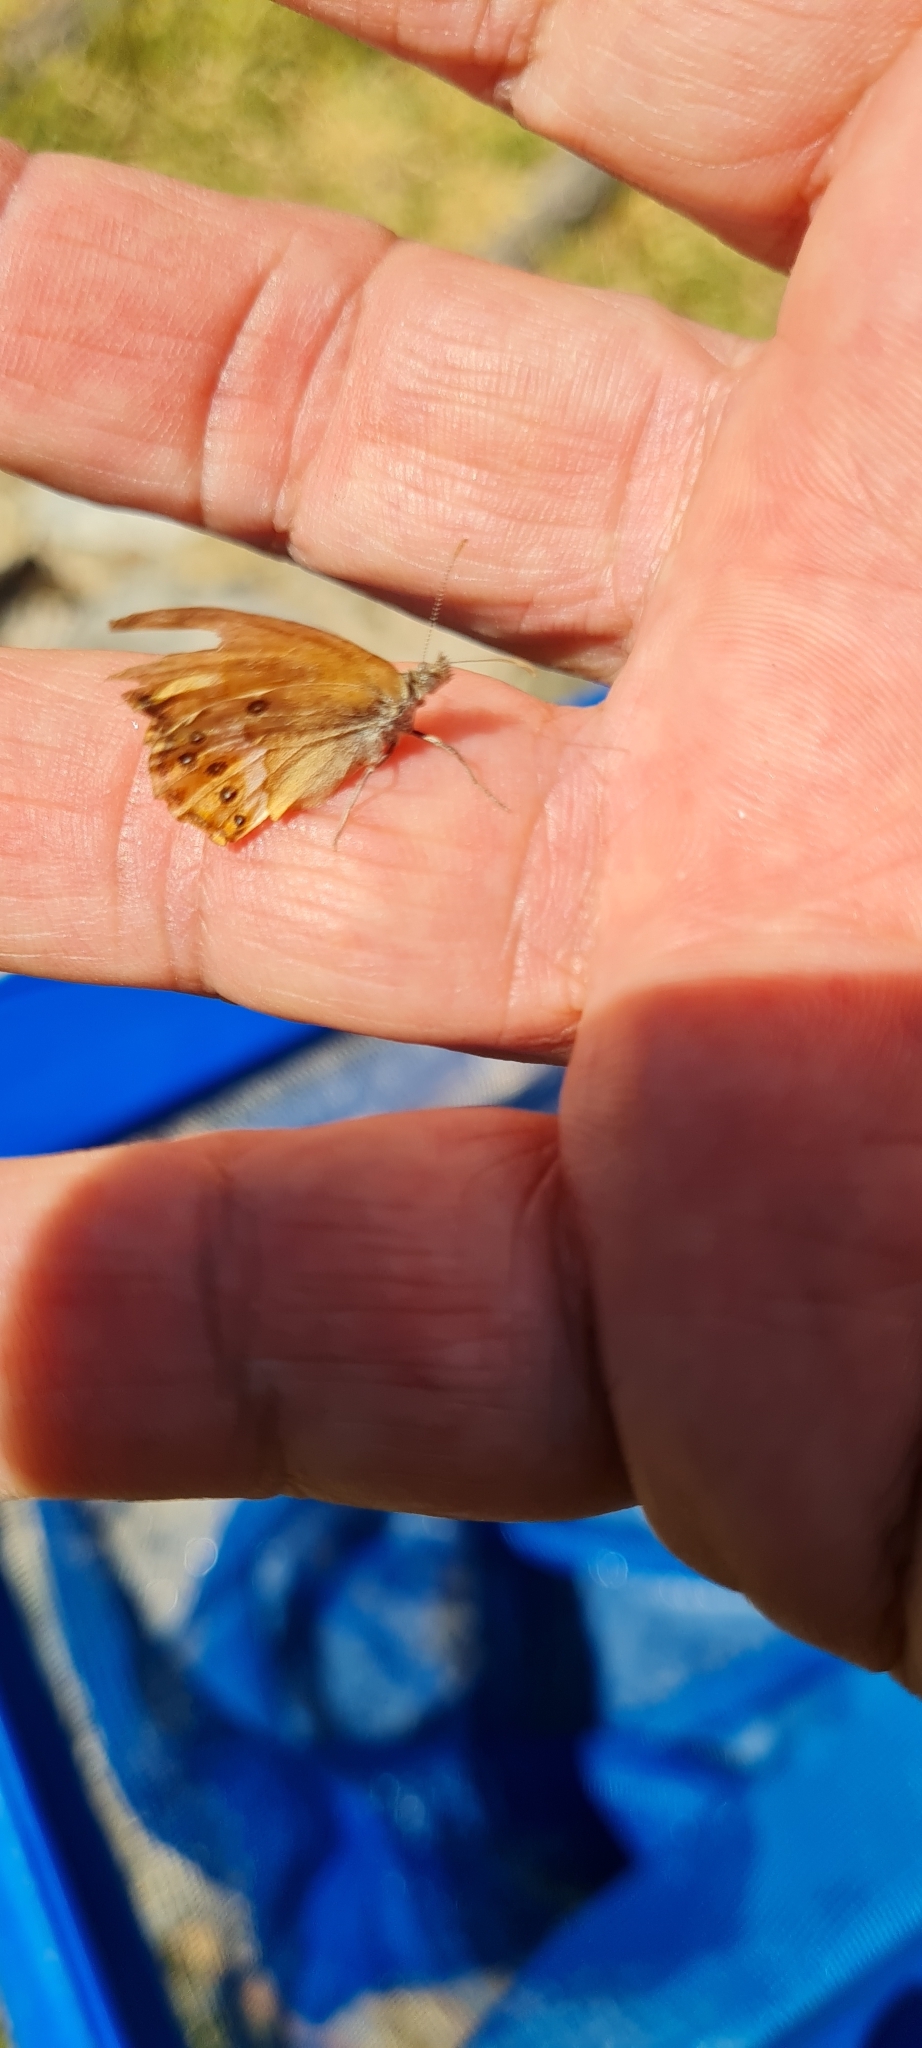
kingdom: Animalia
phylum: Arthropoda
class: Insecta
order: Lepidoptera
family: Nymphalidae
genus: Coenonympha
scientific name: Coenonympha dorus
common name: Dusky heath
